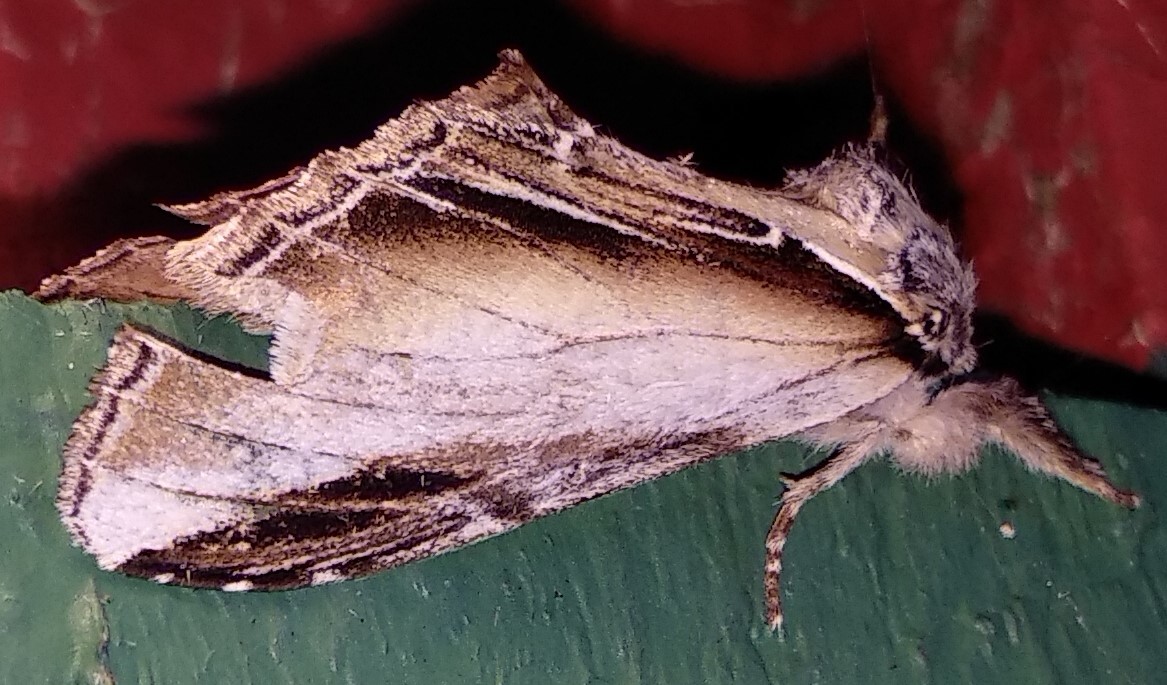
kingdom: Animalia
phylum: Arthropoda
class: Insecta
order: Lepidoptera
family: Notodontidae
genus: Pheosia
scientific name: Pheosia rimosa
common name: Black-rimmed prominent
